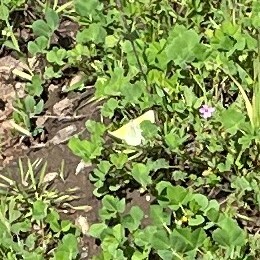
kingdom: Animalia
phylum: Arthropoda
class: Insecta
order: Lepidoptera
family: Pieridae
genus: Colias
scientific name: Colias eurytheme
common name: Alfalfa butterfly
